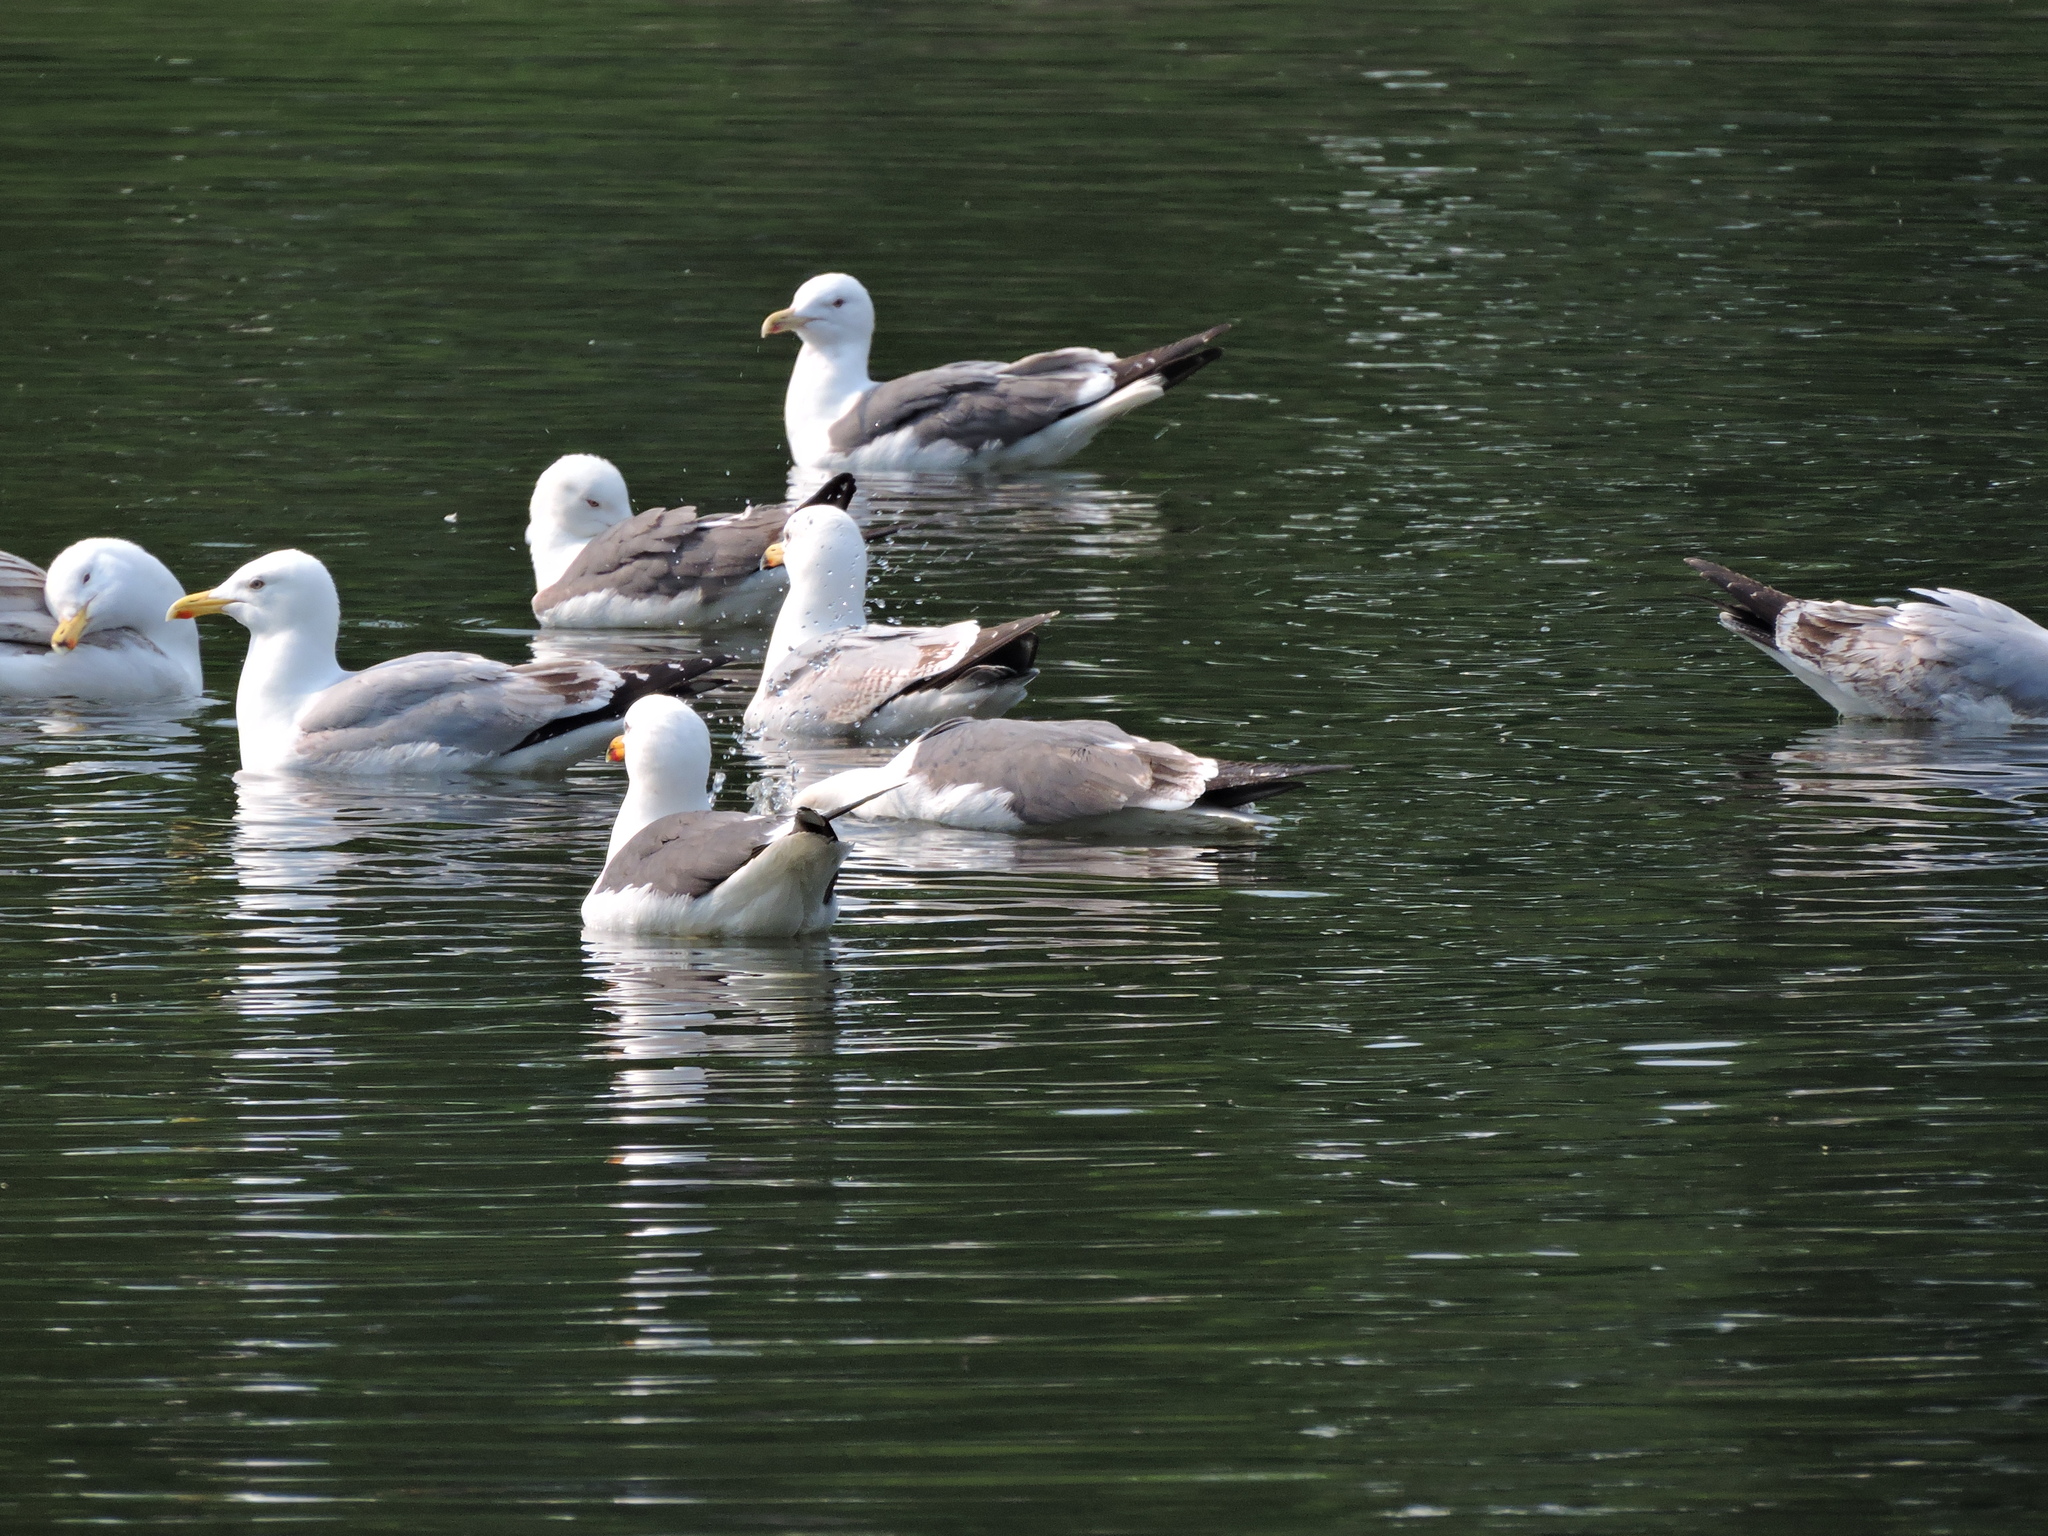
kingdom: Animalia
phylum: Chordata
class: Aves
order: Charadriiformes
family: Laridae
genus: Larus
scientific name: Larus argentatus
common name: Herring gull
